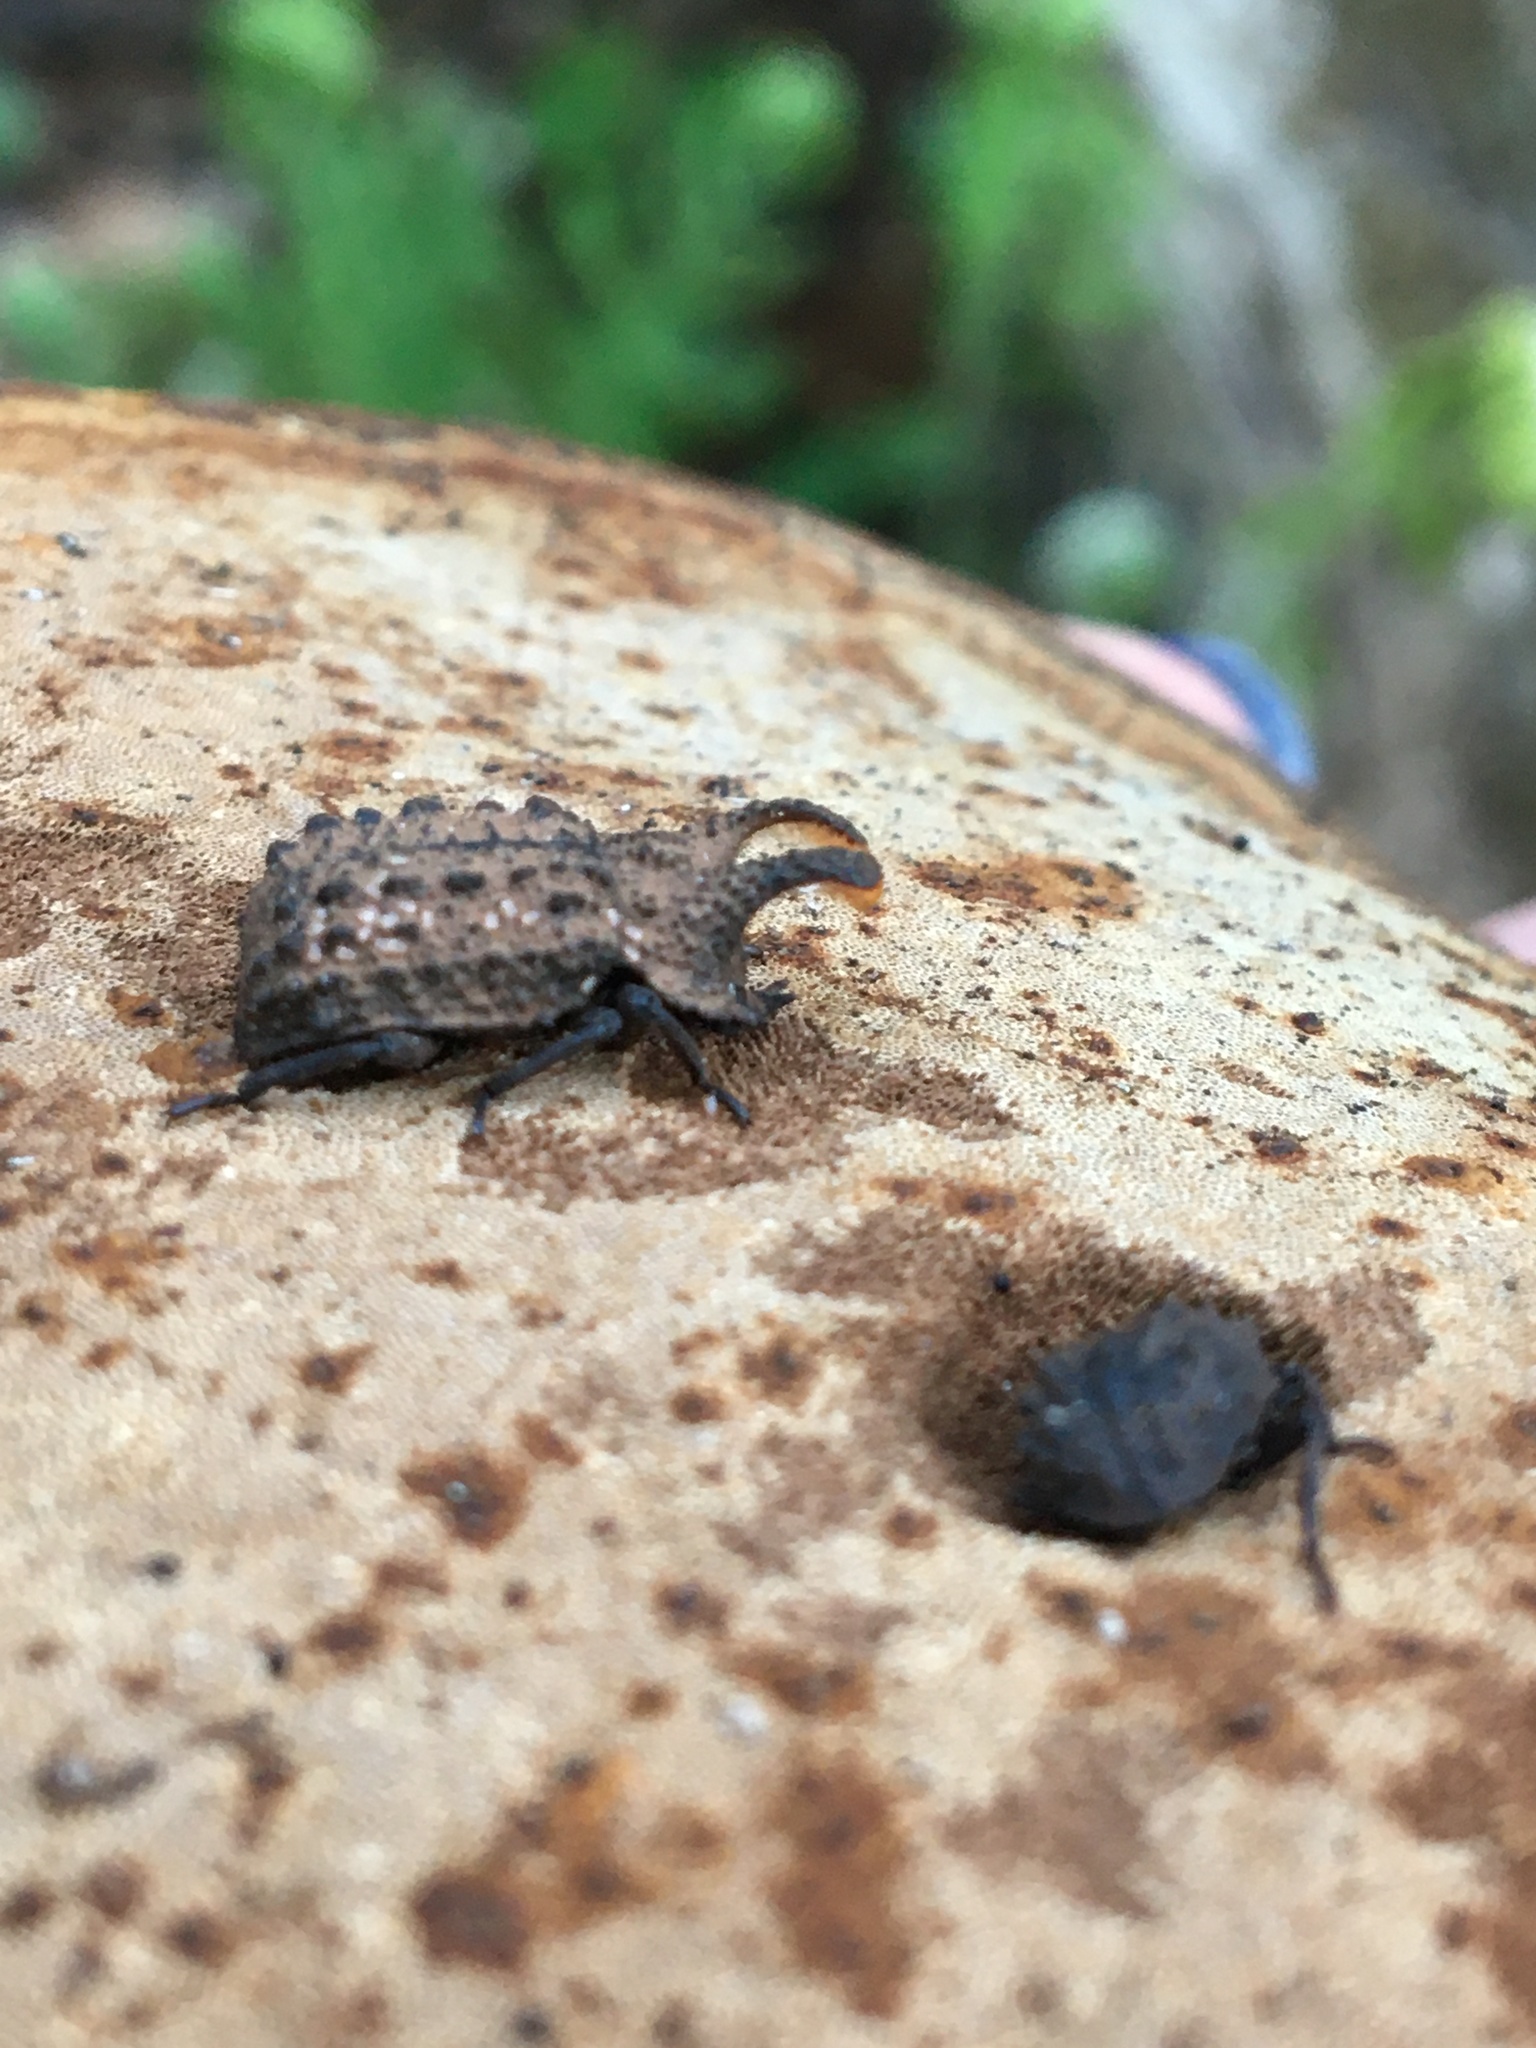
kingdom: Animalia
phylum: Arthropoda
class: Insecta
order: Coleoptera
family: Tenebrionidae
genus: Gnatocerus
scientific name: Gnatocerus cornutus
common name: Broad-horned flour beetle
